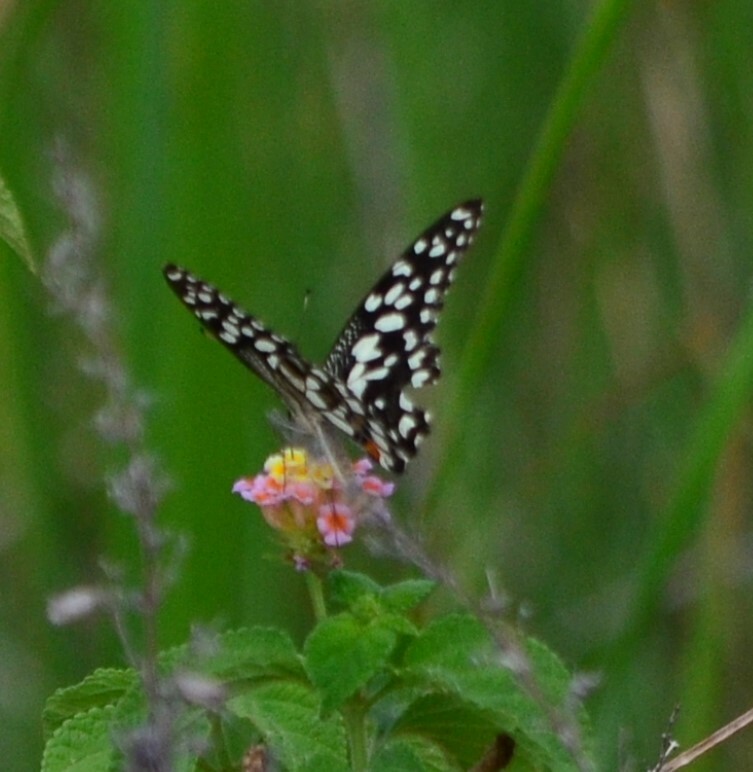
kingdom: Animalia
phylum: Arthropoda
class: Insecta
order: Lepidoptera
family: Papilionidae
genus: Papilio
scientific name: Papilio demoleus
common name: Lime butterfly
